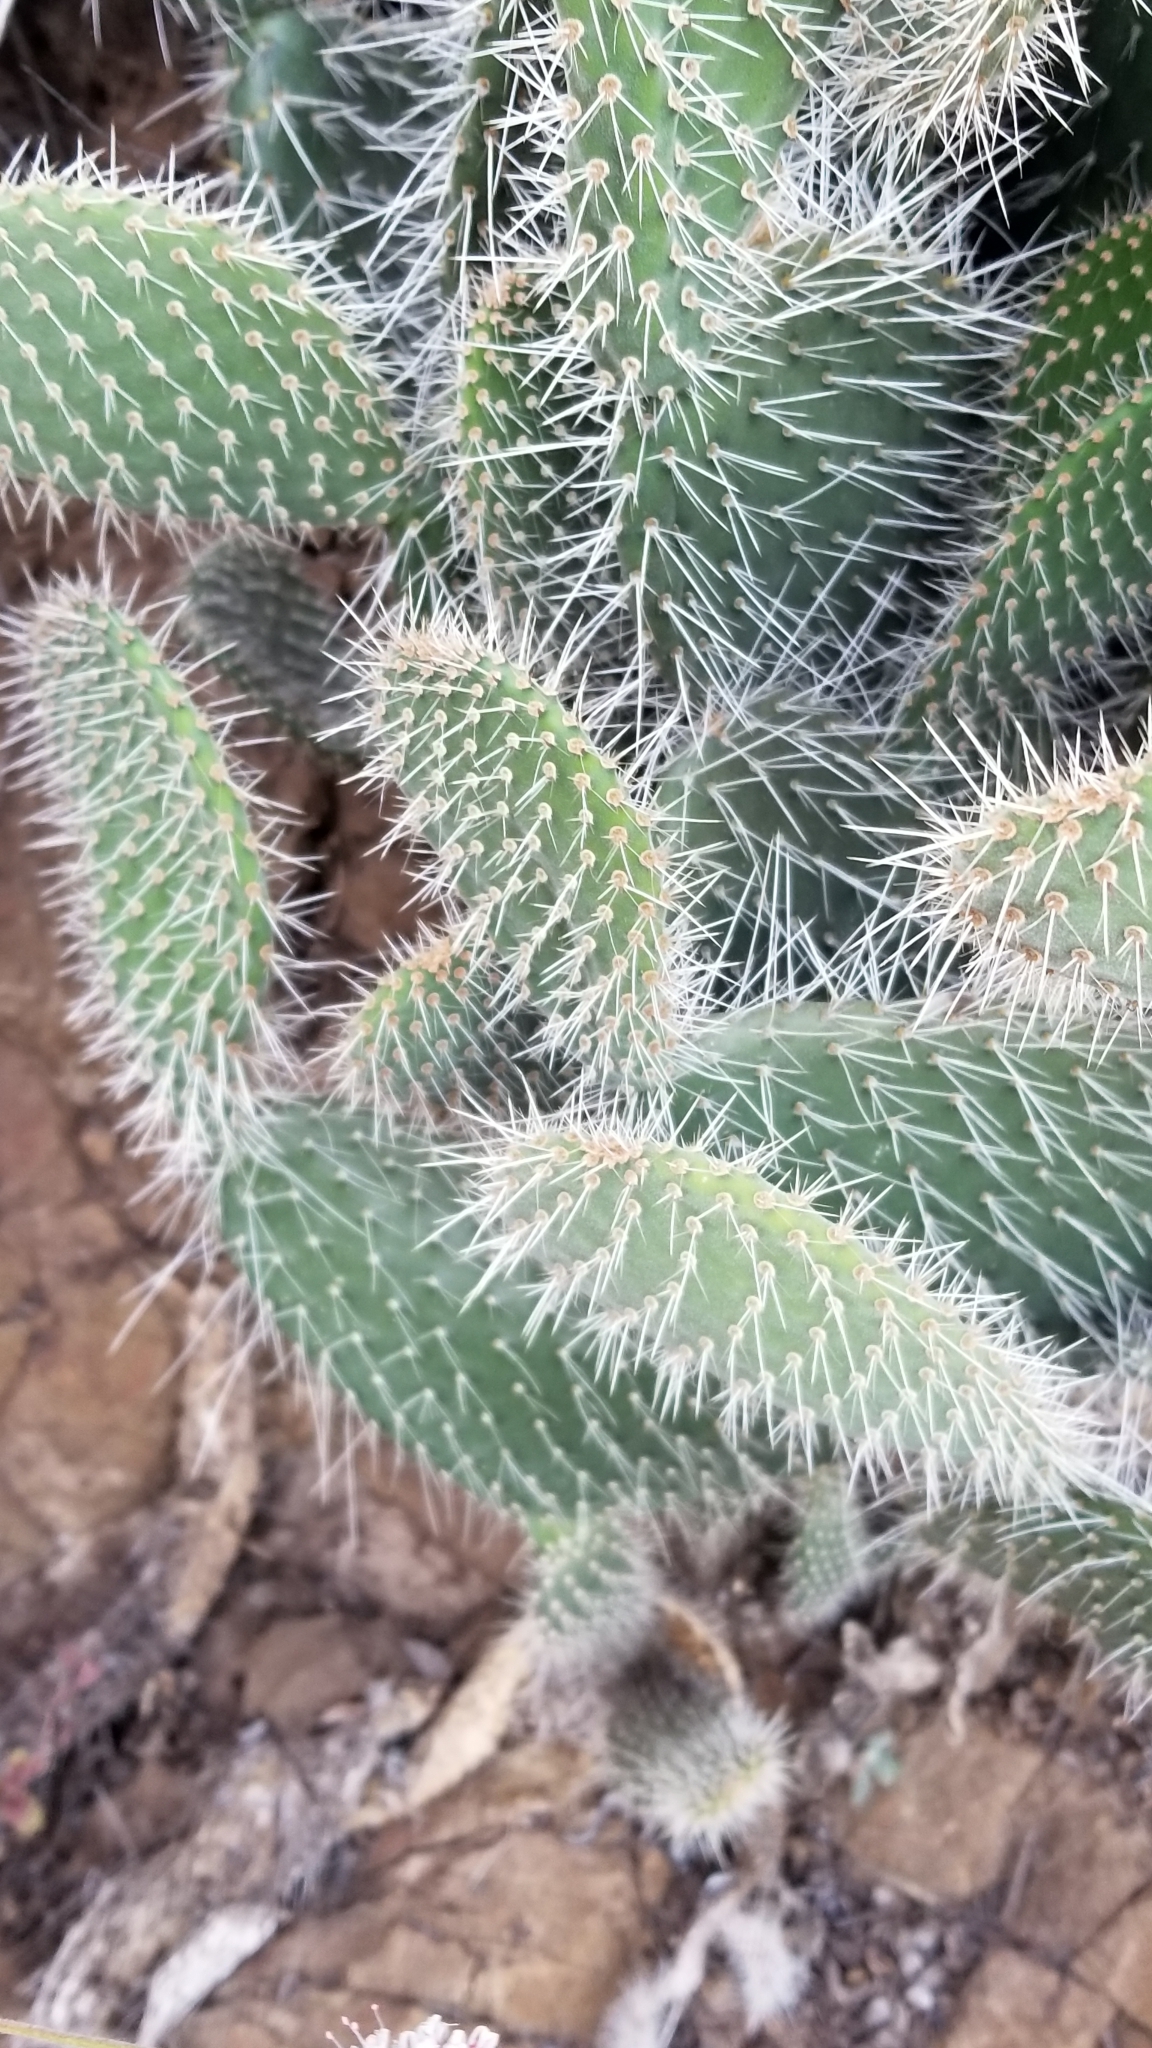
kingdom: Plantae
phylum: Tracheophyta
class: Magnoliopsida
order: Caryophyllales
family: Cactaceae
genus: Opuntia
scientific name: Opuntia leucotricha
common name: Arborescent pricklypear
